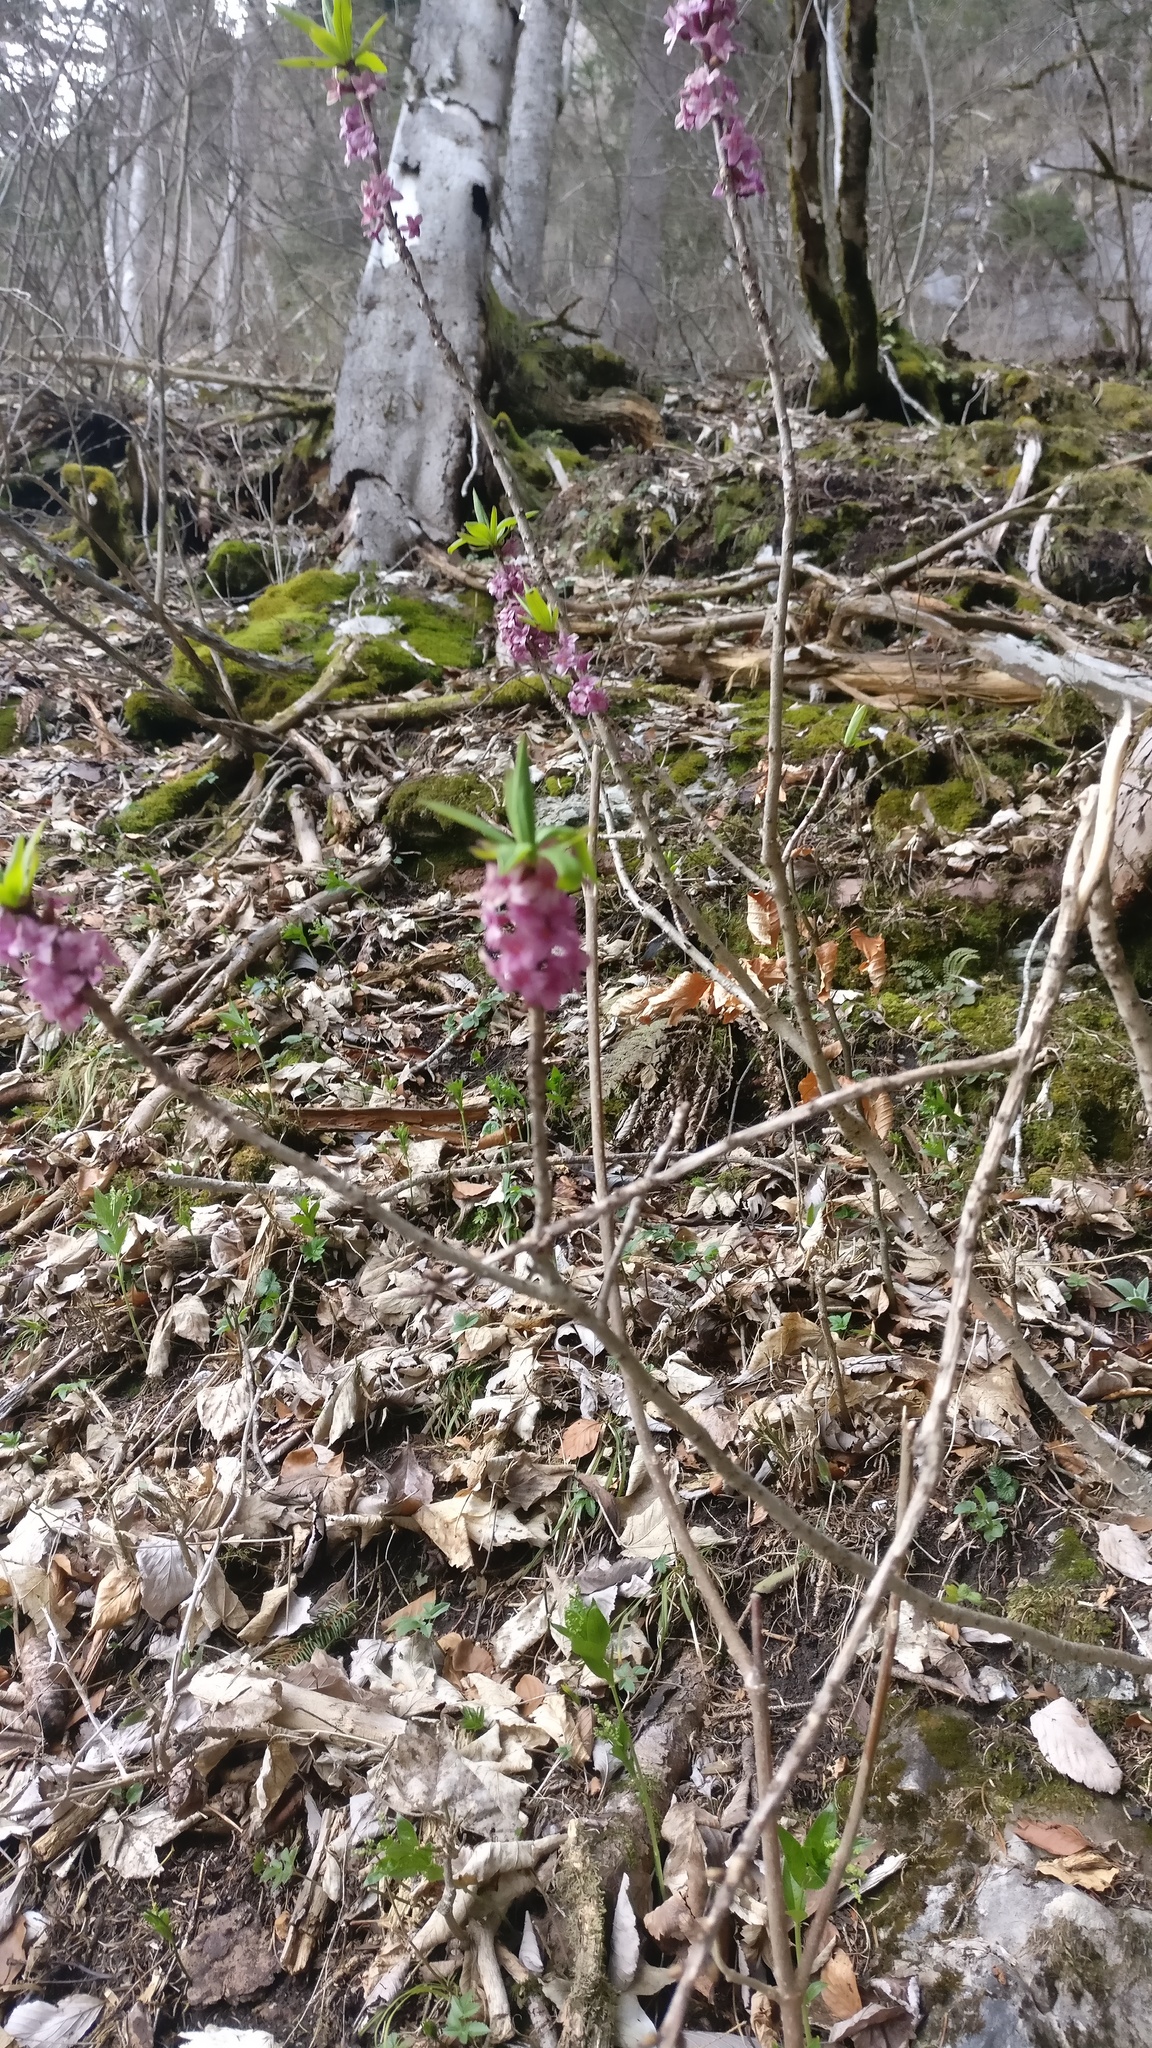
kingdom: Plantae
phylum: Tracheophyta
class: Magnoliopsida
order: Malvales
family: Thymelaeaceae
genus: Daphne
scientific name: Daphne mezereum
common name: Mezereon
